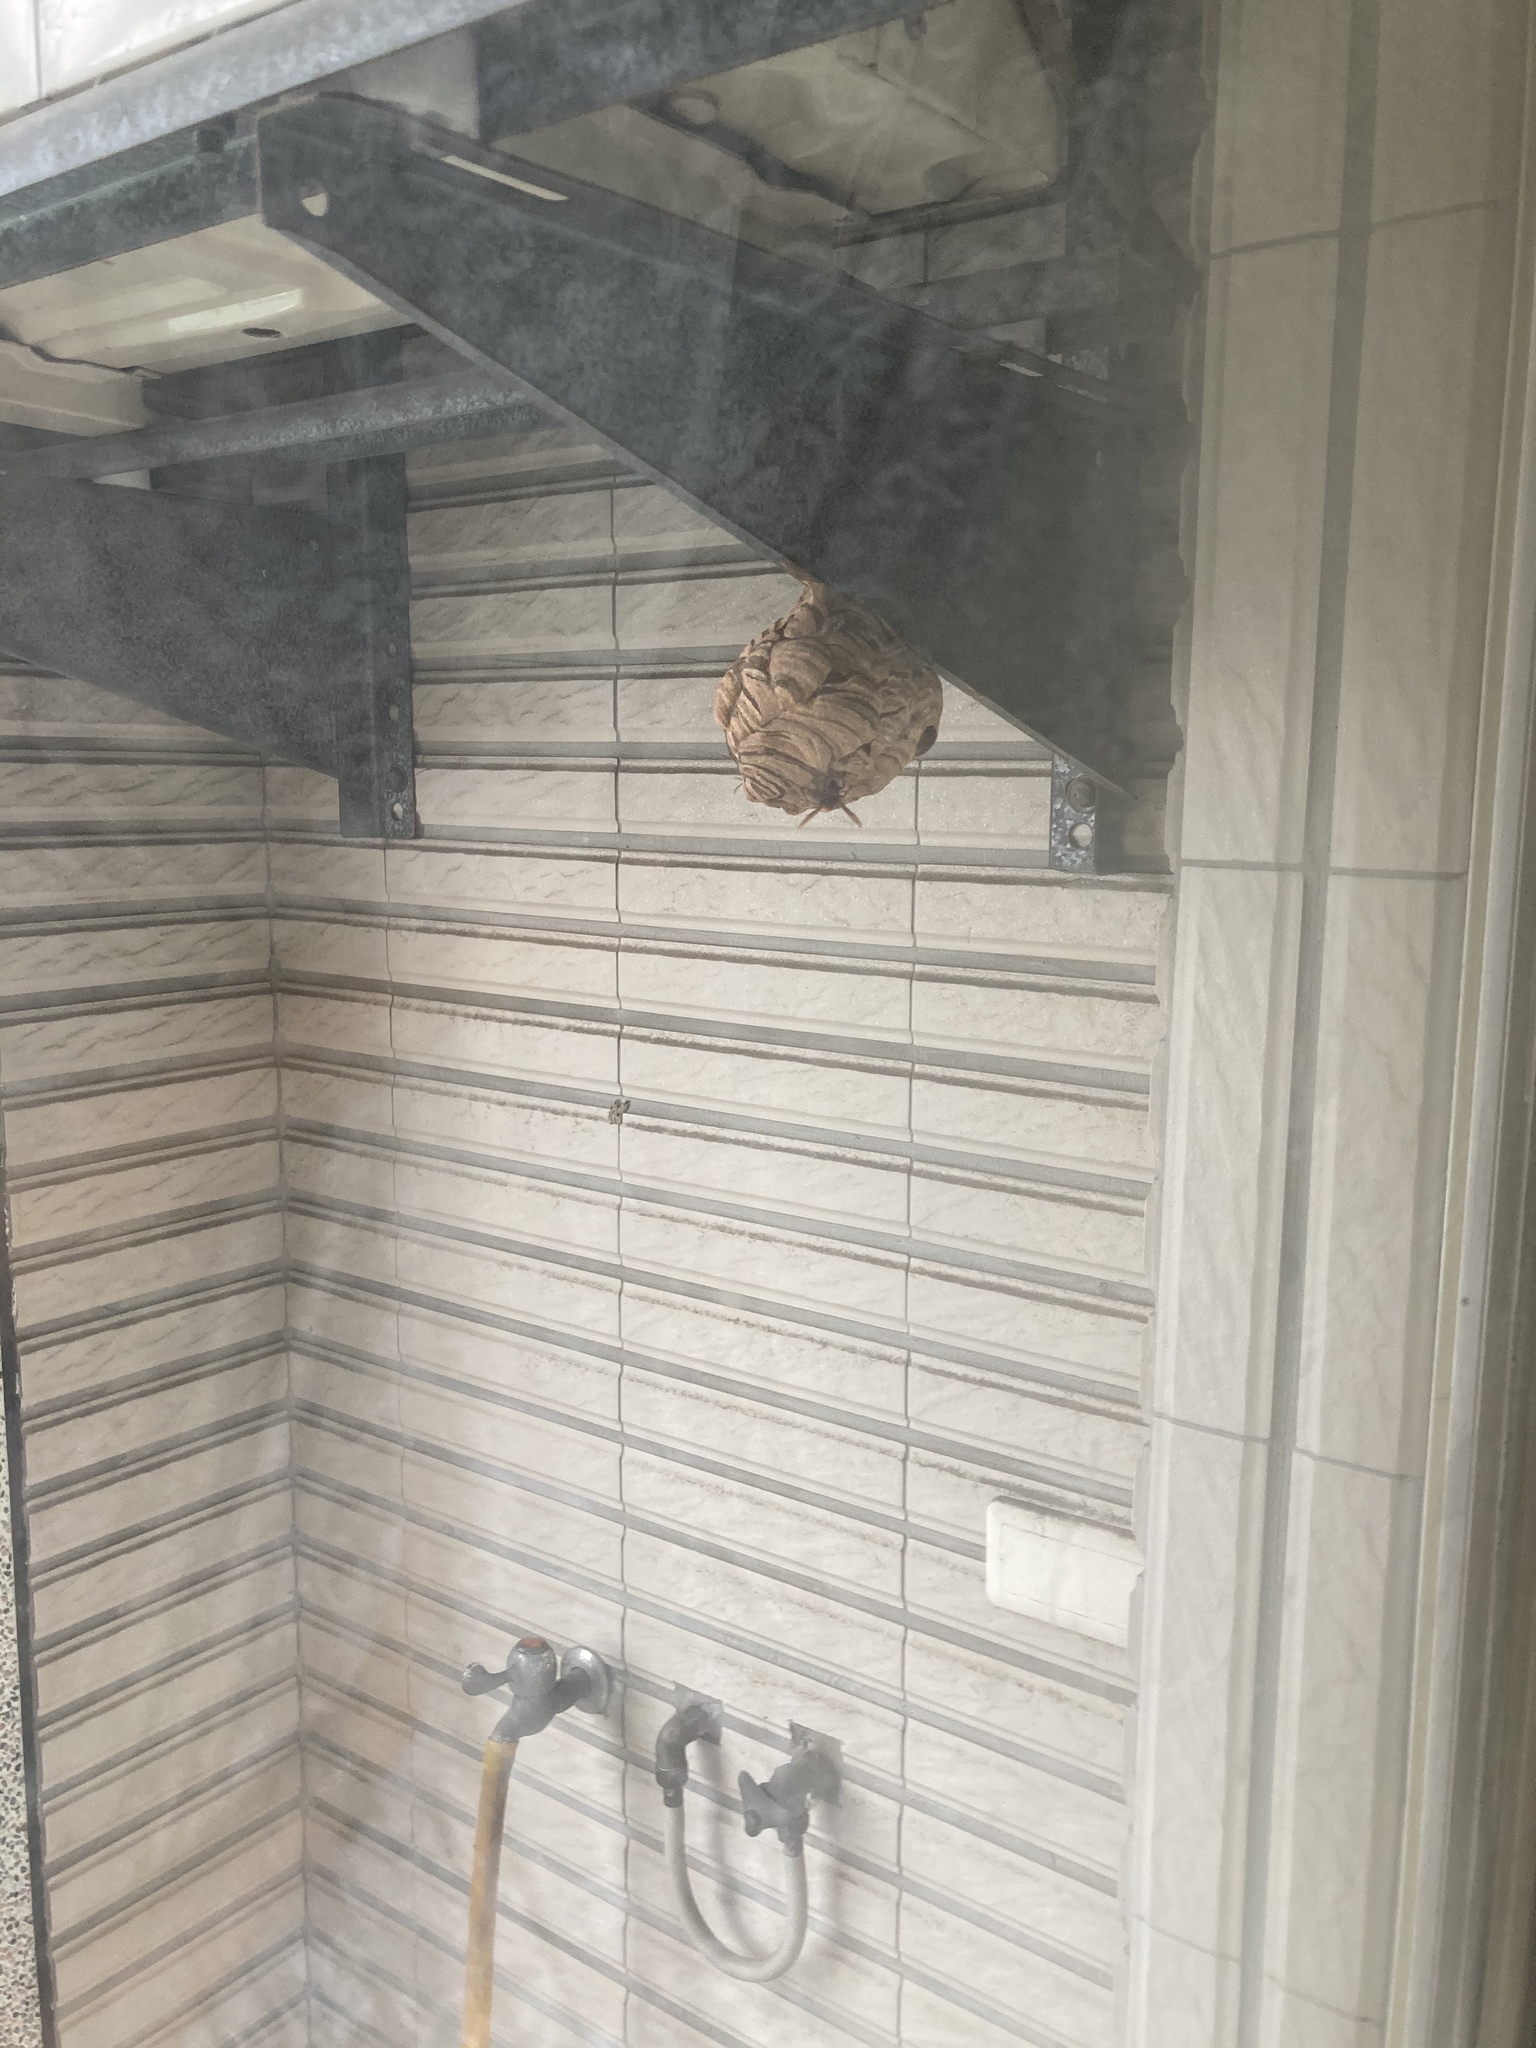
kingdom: Animalia
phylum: Arthropoda
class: Insecta
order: Hymenoptera
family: Vespidae
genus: Vespa
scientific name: Vespa affinis
